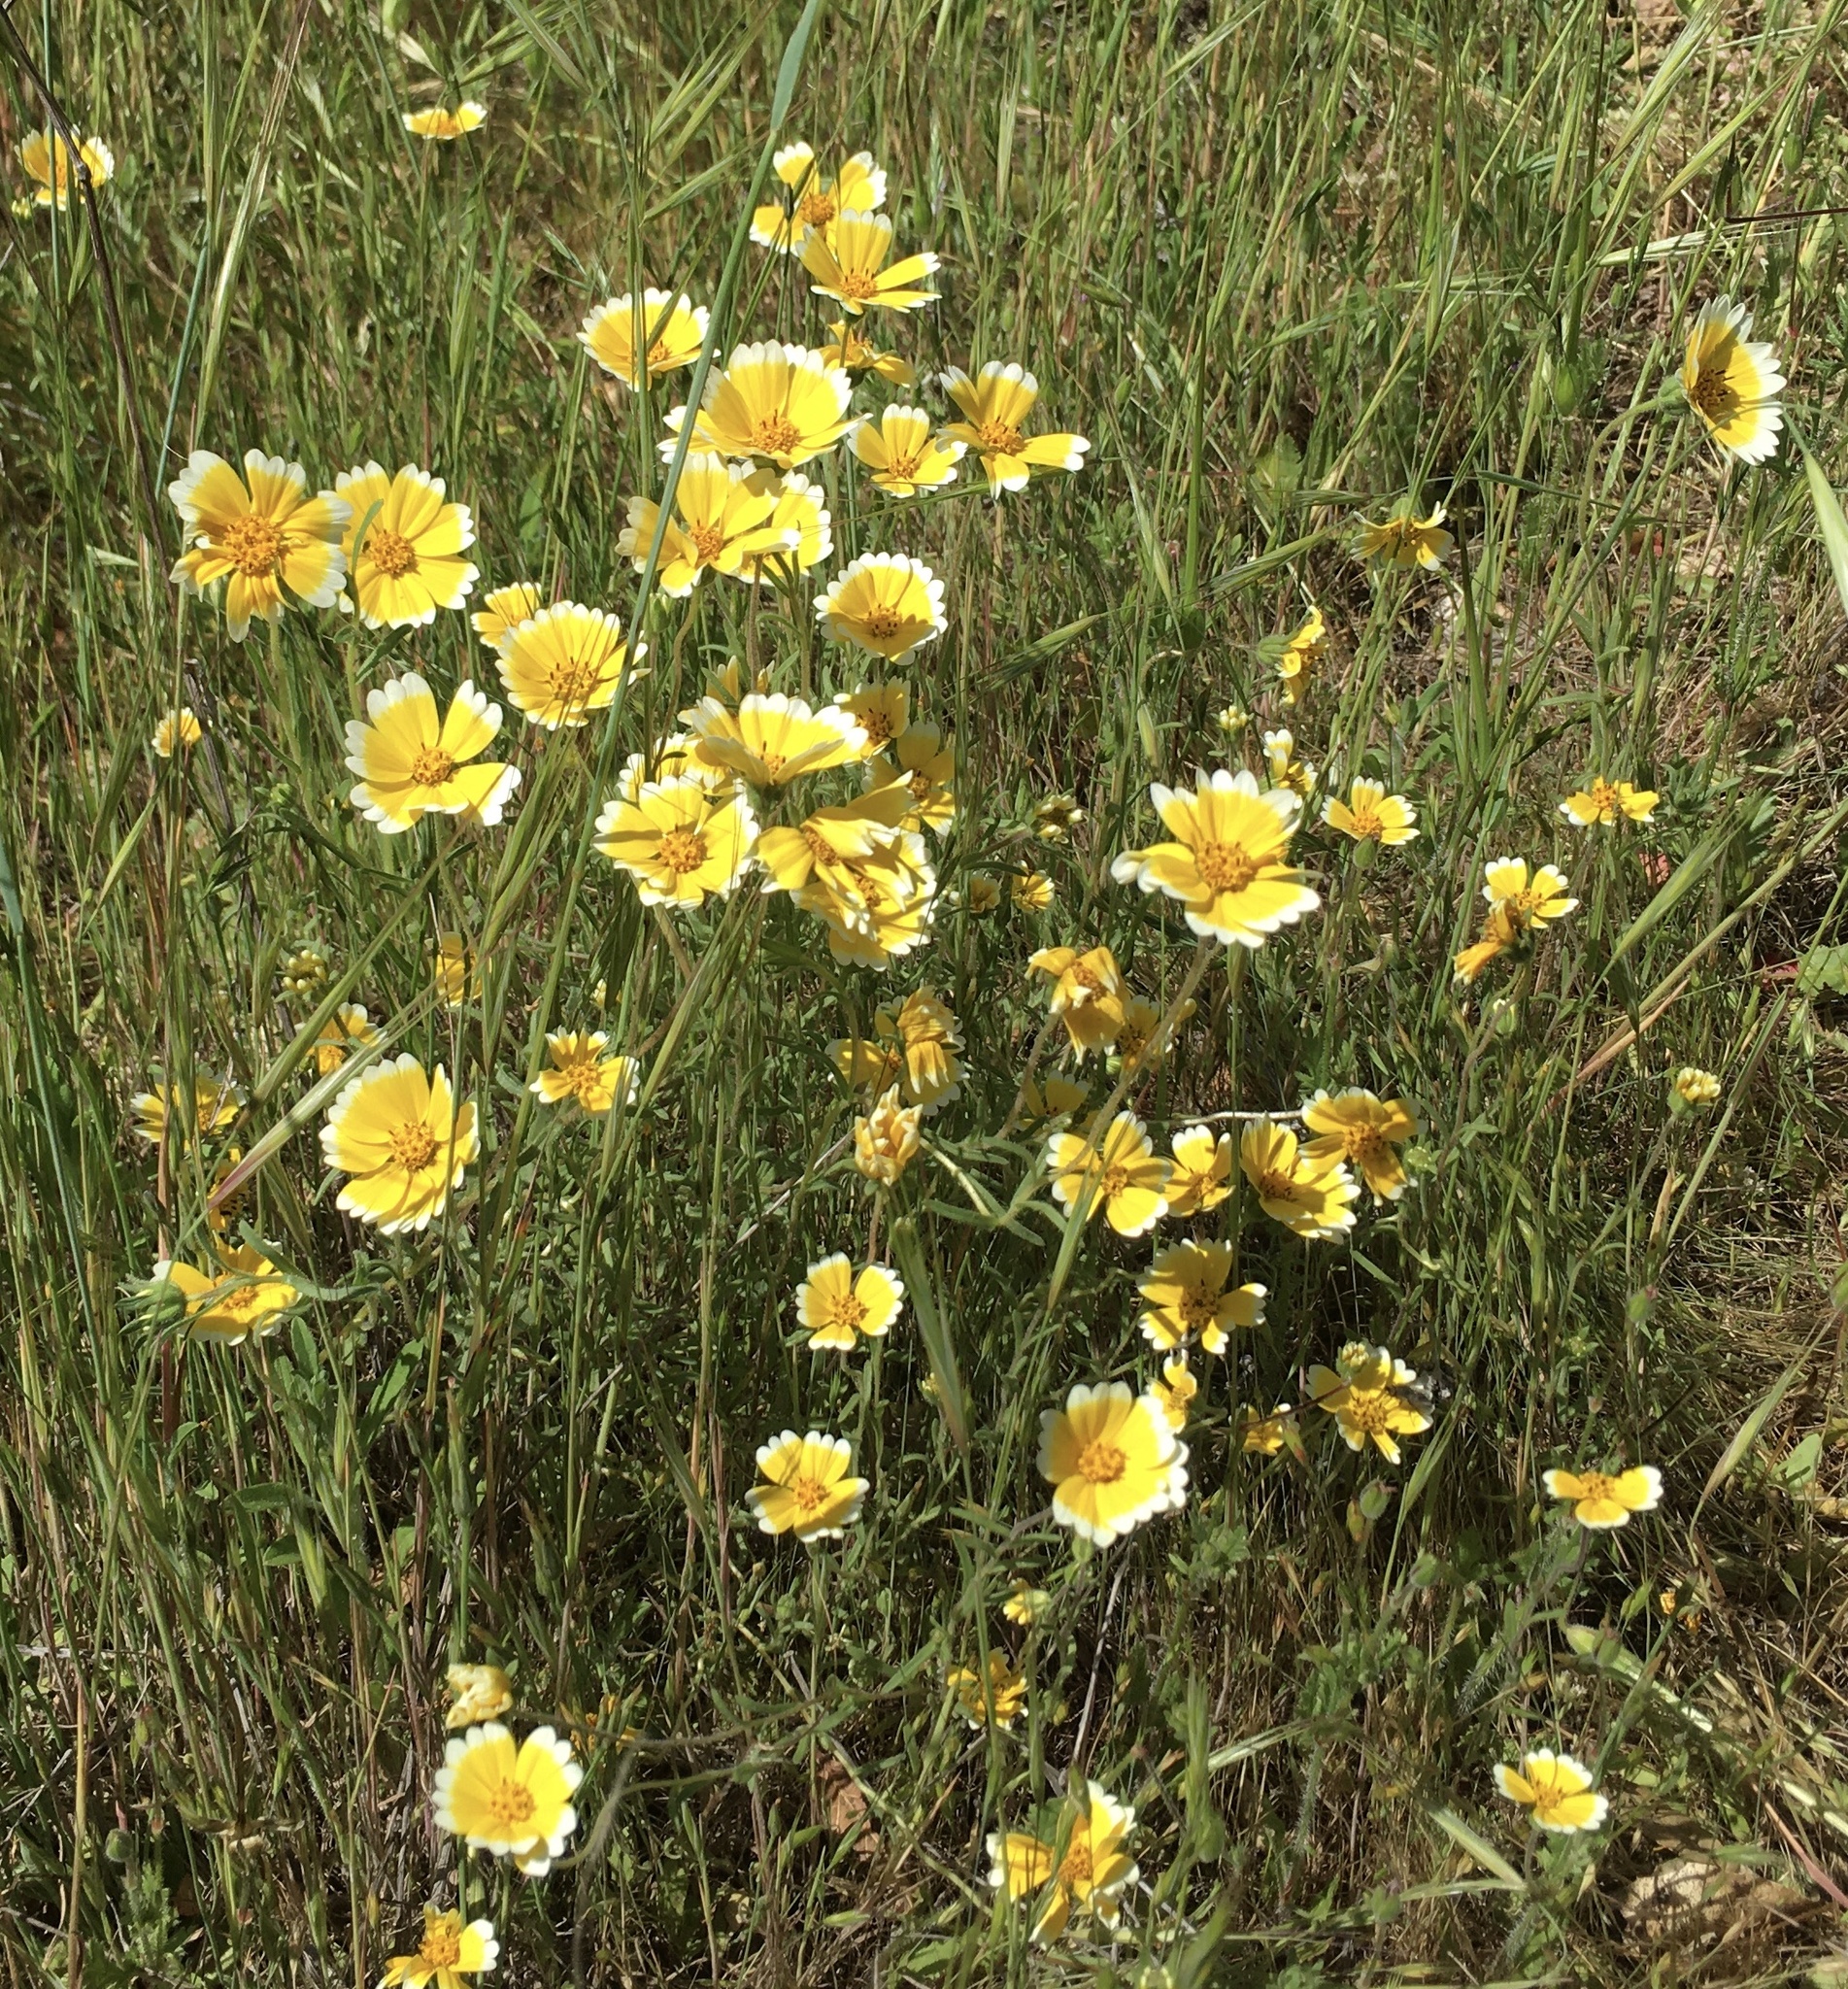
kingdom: Plantae
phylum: Tracheophyta
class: Magnoliopsida
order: Asterales
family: Asteraceae
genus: Layia
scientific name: Layia platyglossa
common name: Tidy-tips
